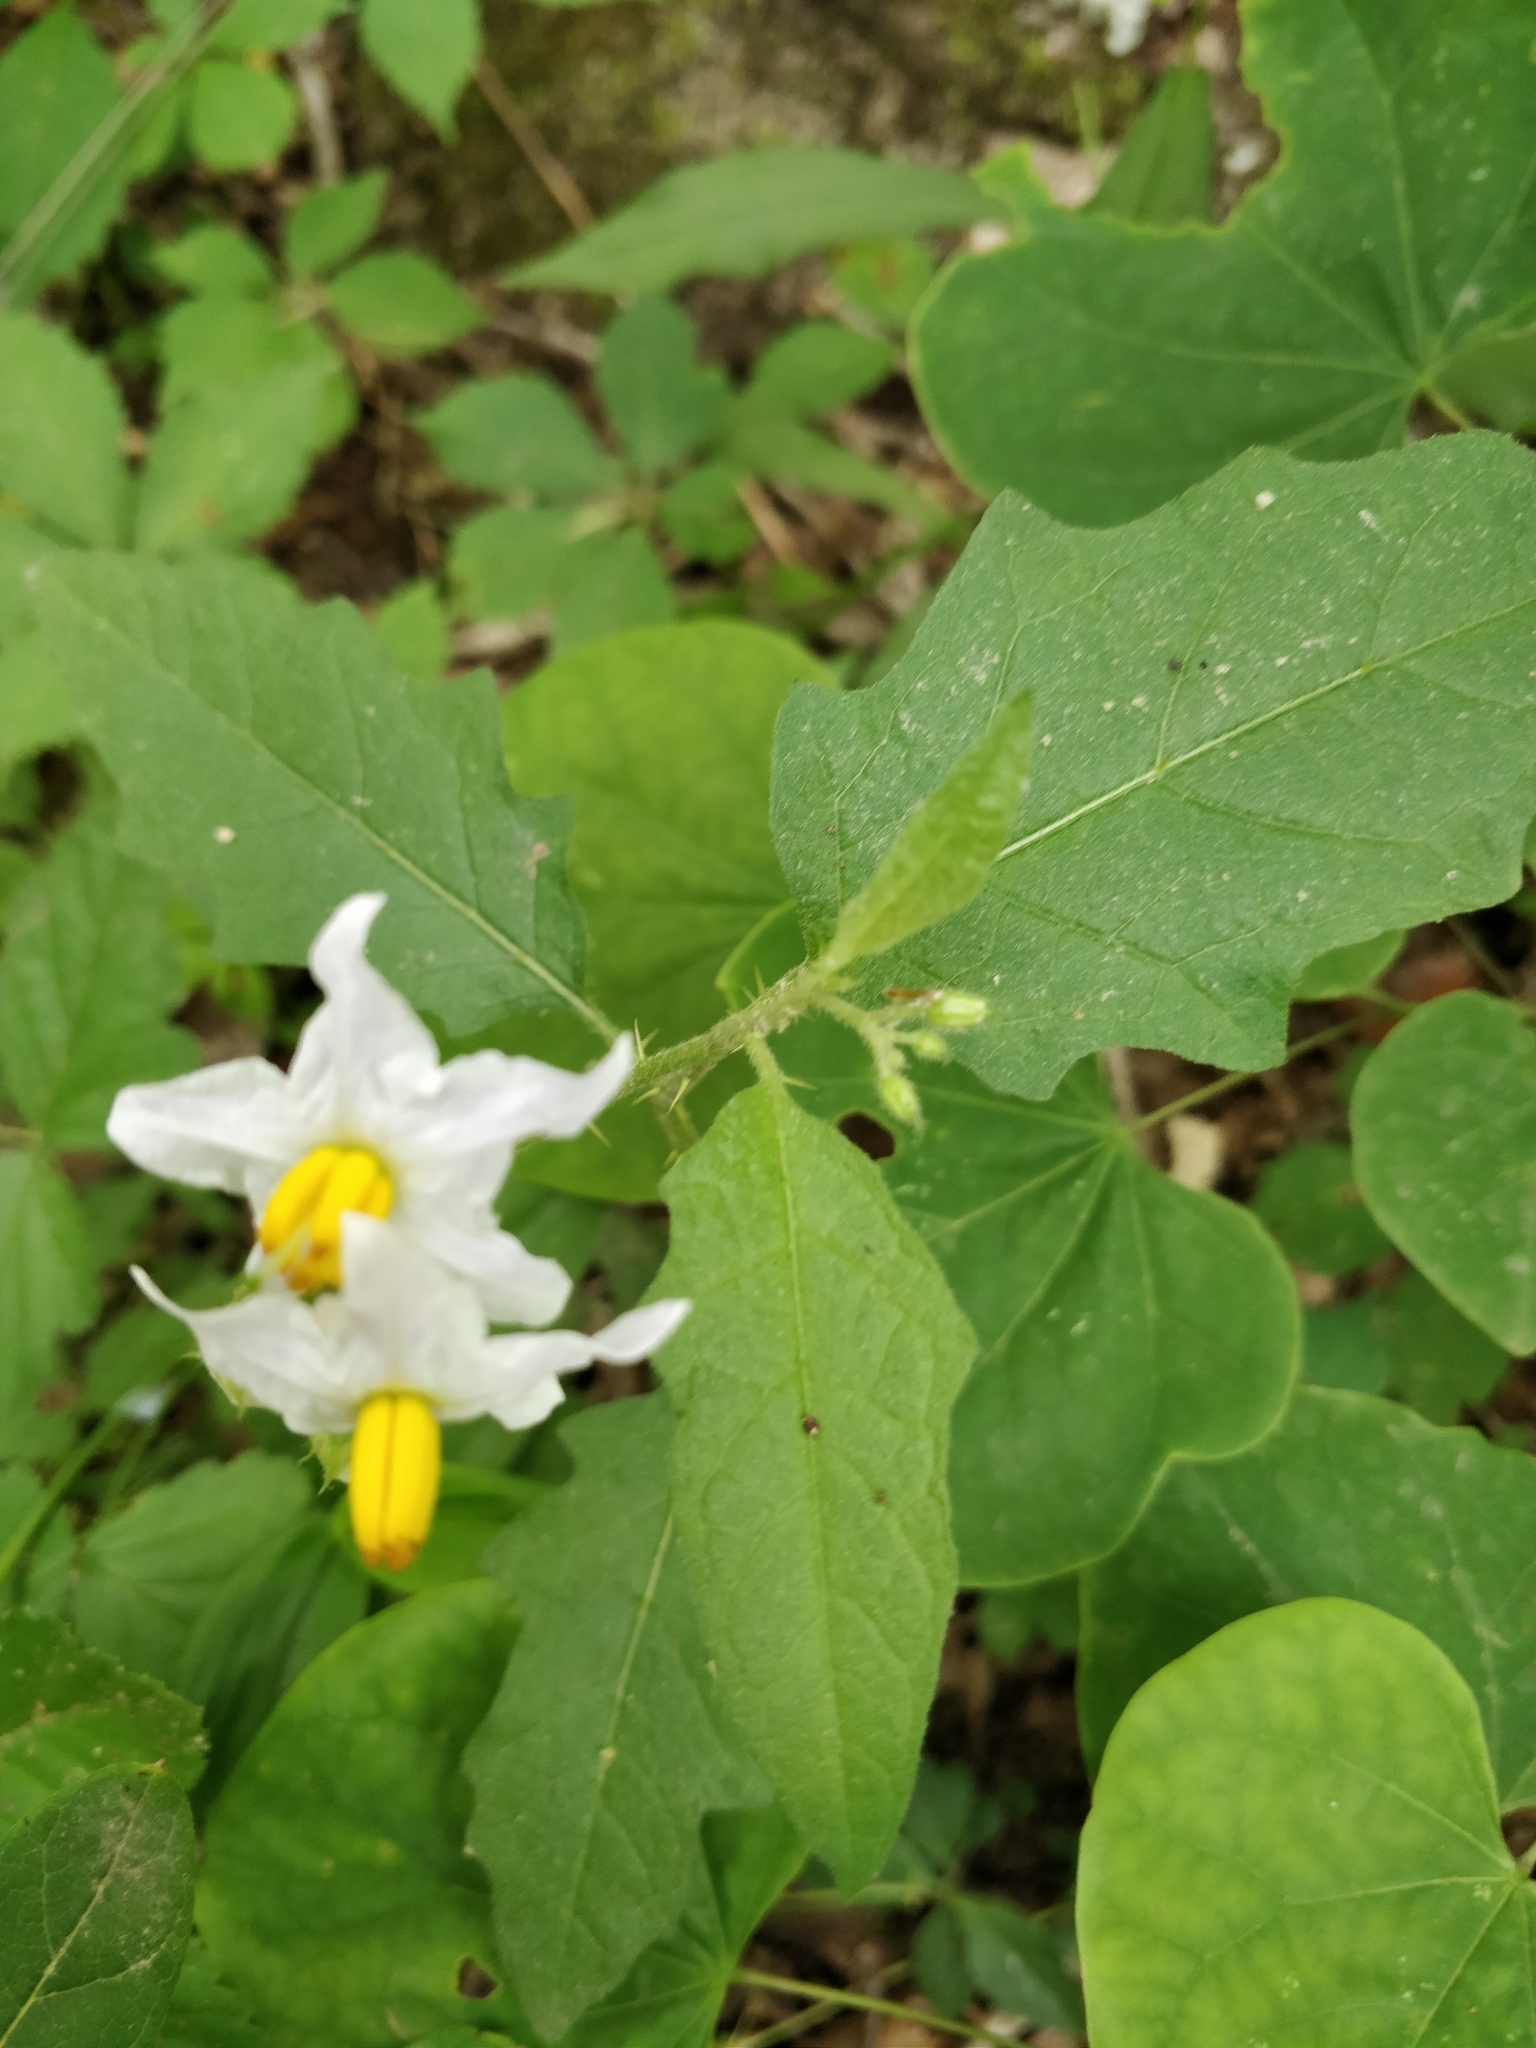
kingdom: Plantae
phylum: Tracheophyta
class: Magnoliopsida
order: Solanales
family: Solanaceae
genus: Solanum
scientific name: Solanum carolinense
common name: Horse-nettle
